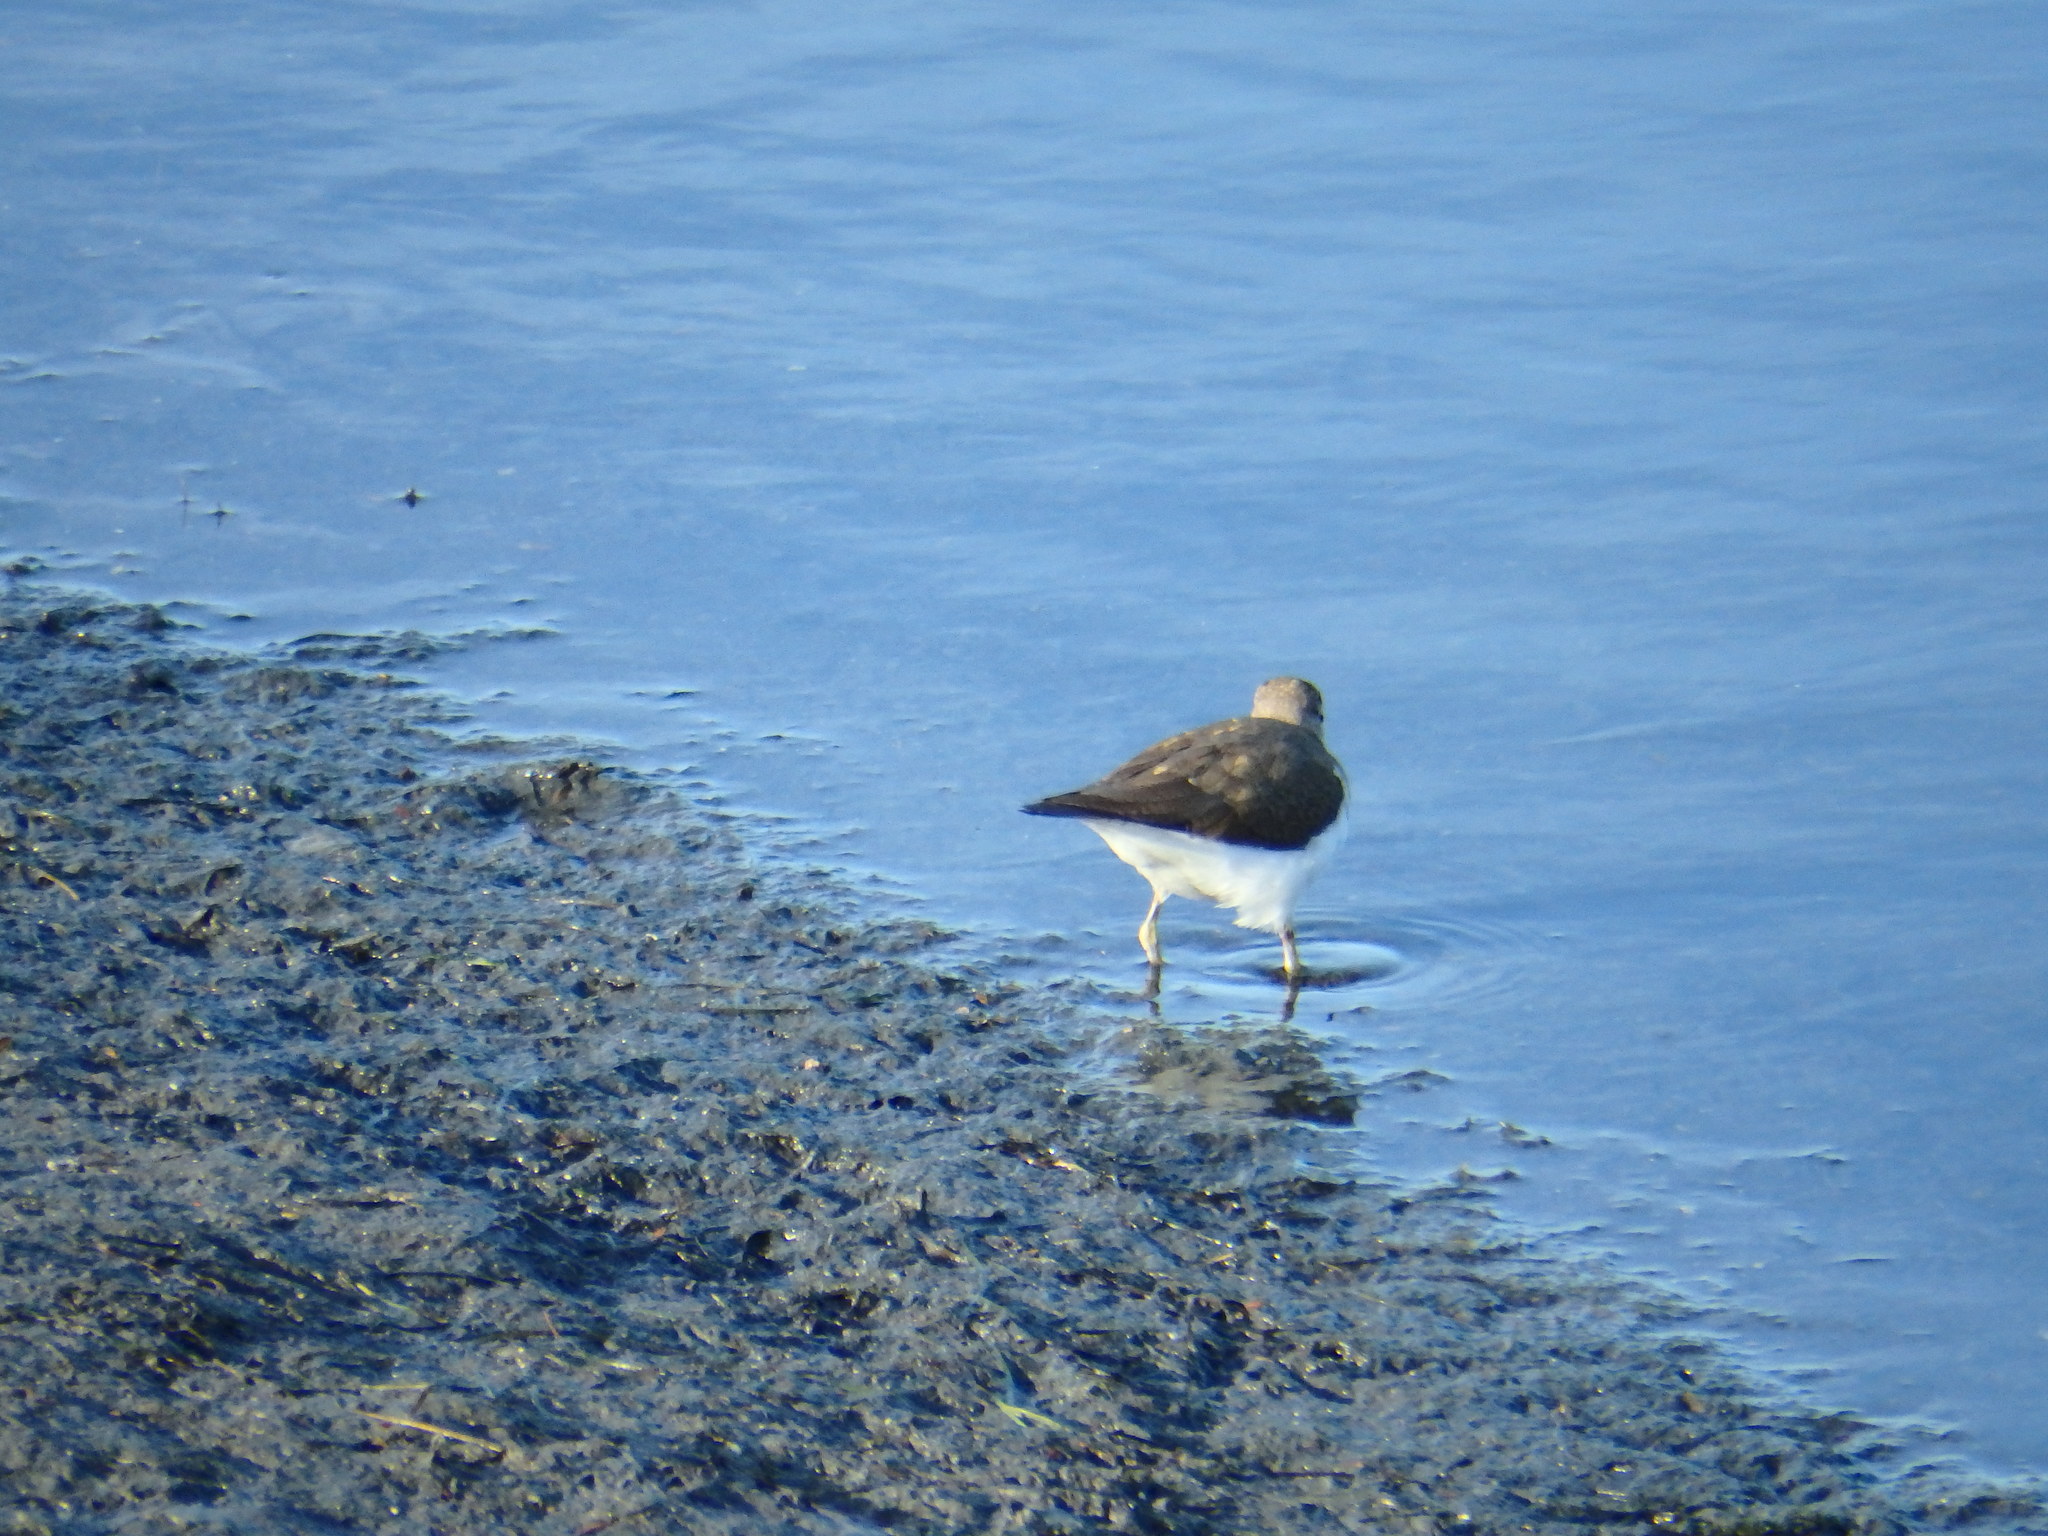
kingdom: Animalia
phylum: Chordata
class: Aves
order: Charadriiformes
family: Scolopacidae
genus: Actitis
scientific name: Actitis hypoleucos
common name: Common sandpiper
